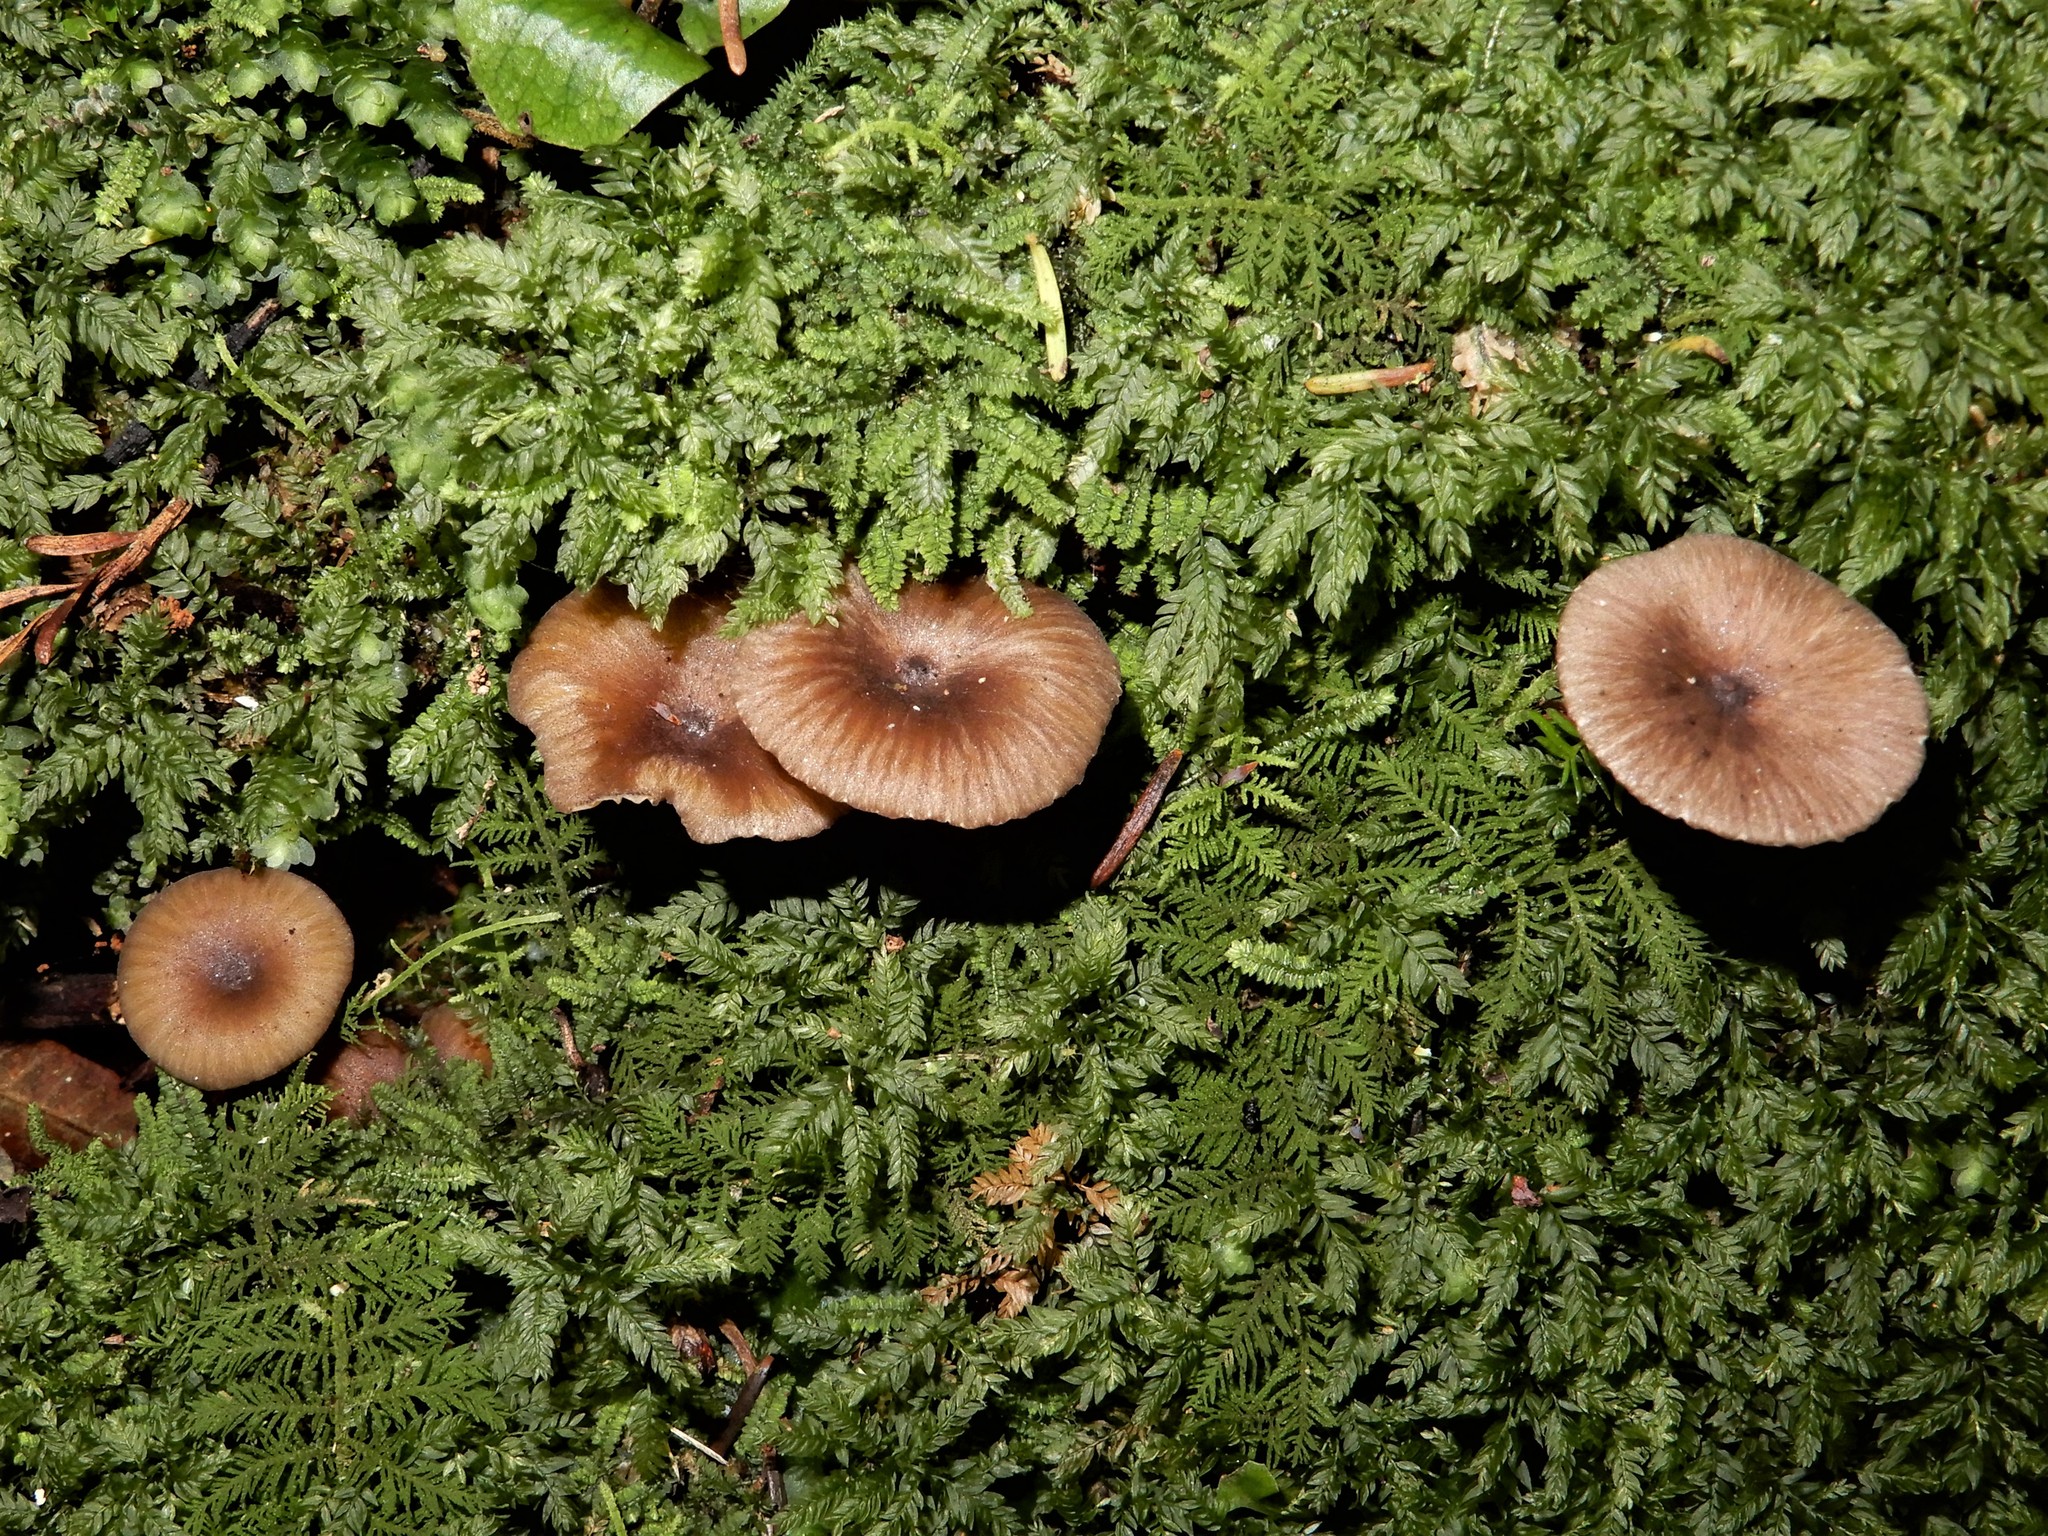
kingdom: Fungi
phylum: Basidiomycota
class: Agaricomycetes
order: Agaricales
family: Marasmiaceae
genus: Gerronema
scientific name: Gerronema
